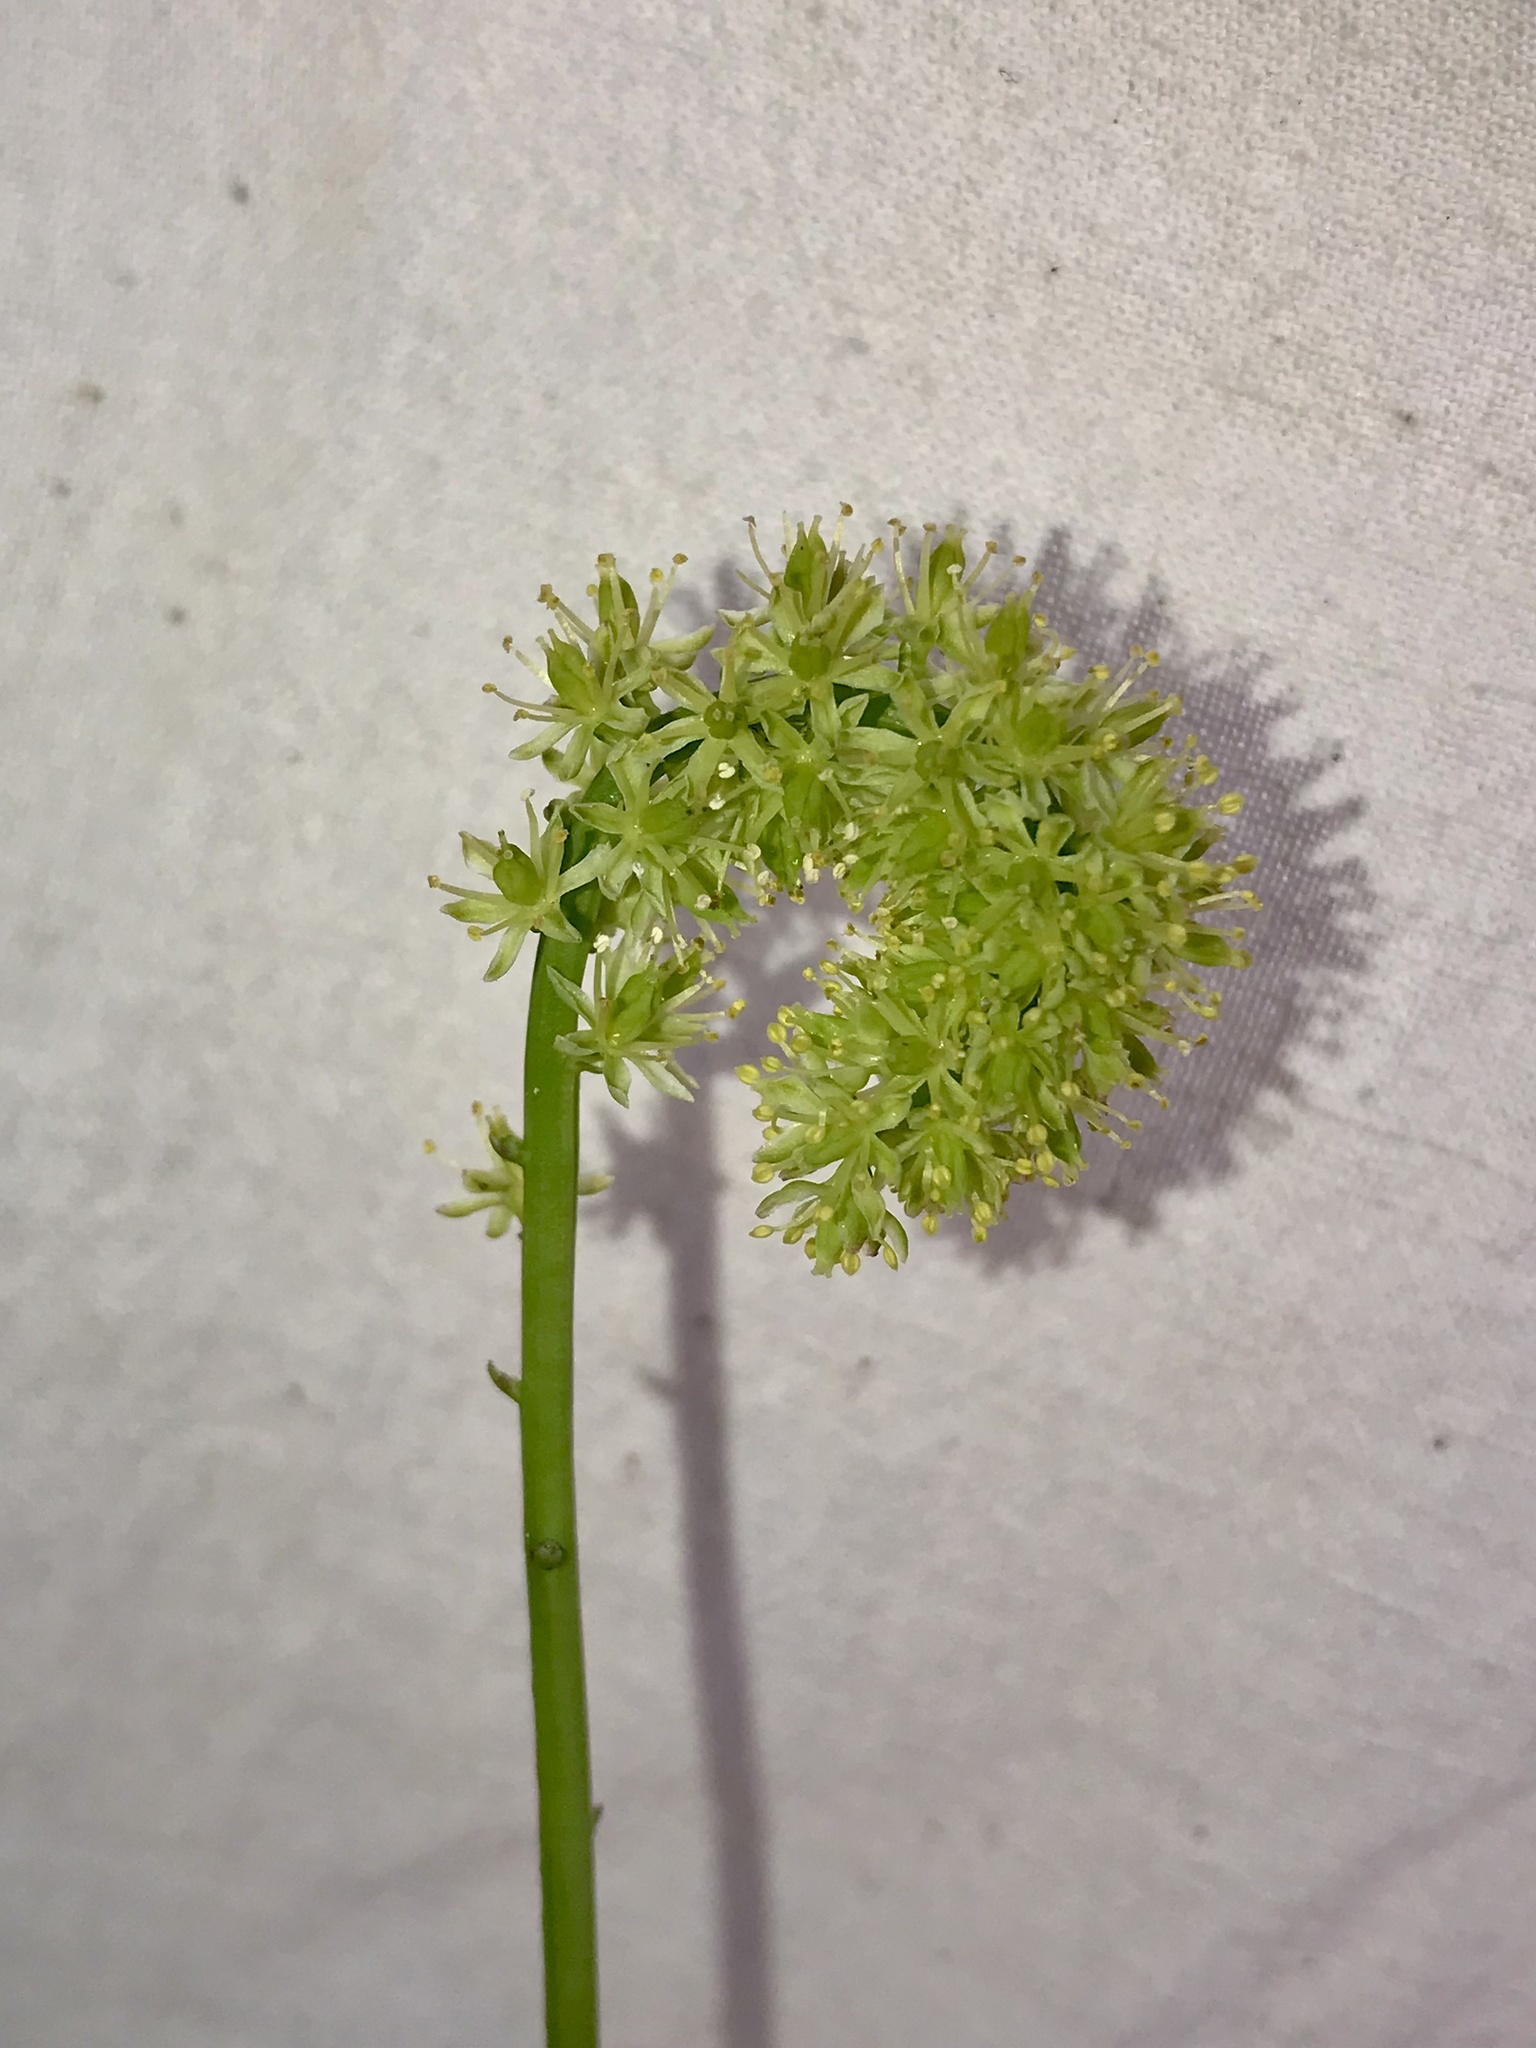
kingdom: Plantae
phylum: Tracheophyta
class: Liliopsida
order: Alismatales
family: Tofieldiaceae
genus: Tofieldia
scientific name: Tofieldia calyculata
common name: German-asphodel
